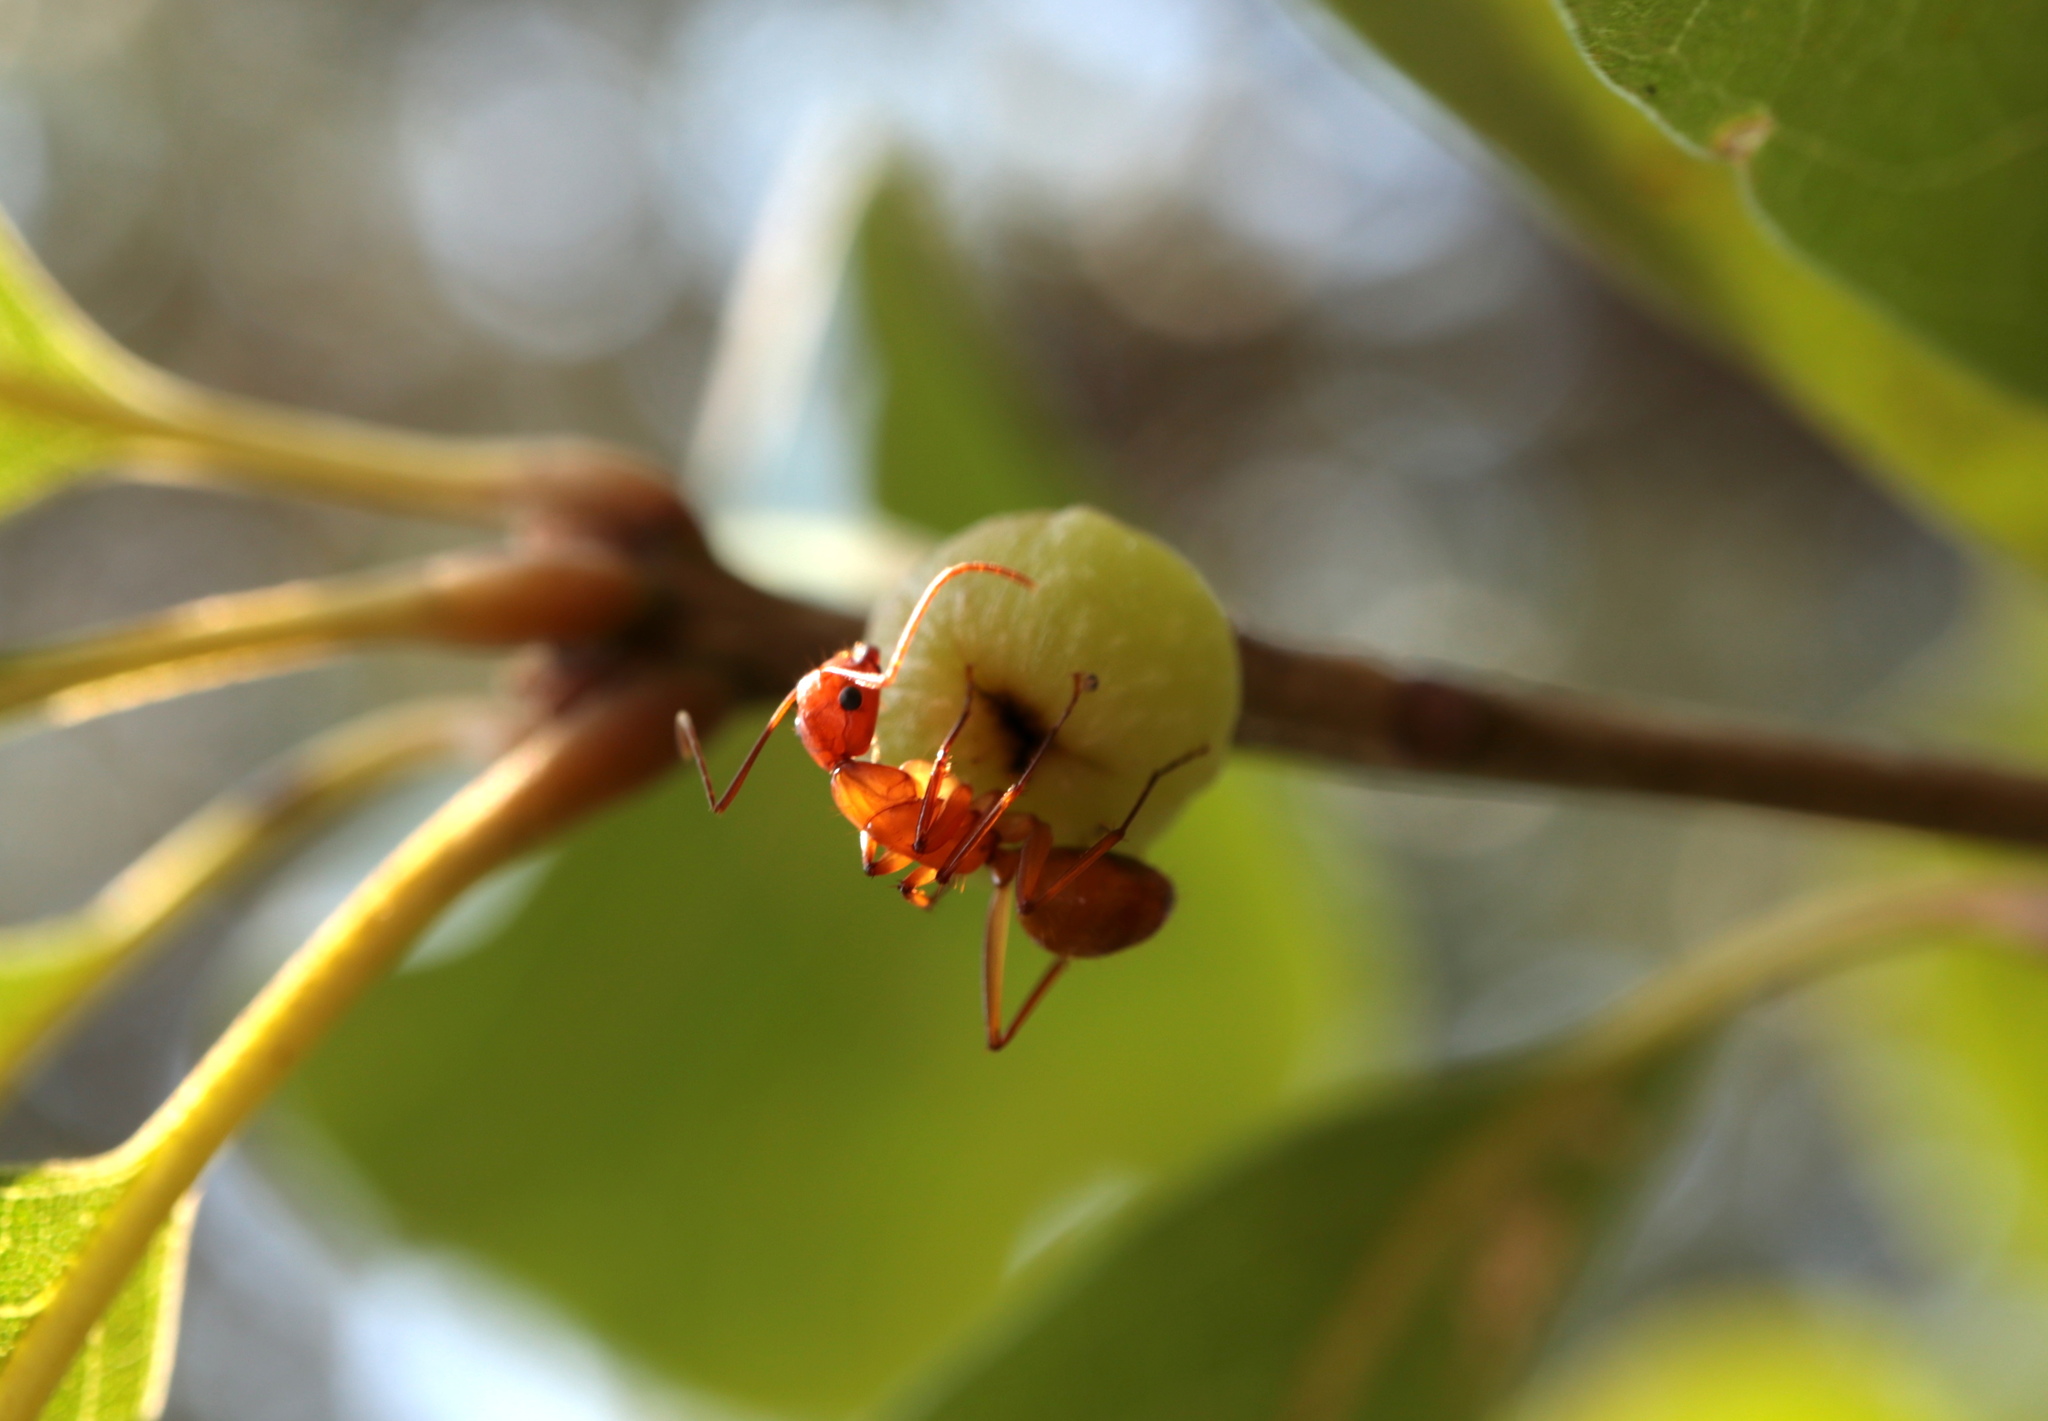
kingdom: Animalia
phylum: Arthropoda
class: Insecta
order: Hymenoptera
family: Formicidae
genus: Camponotus
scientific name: Camponotus castaneus
